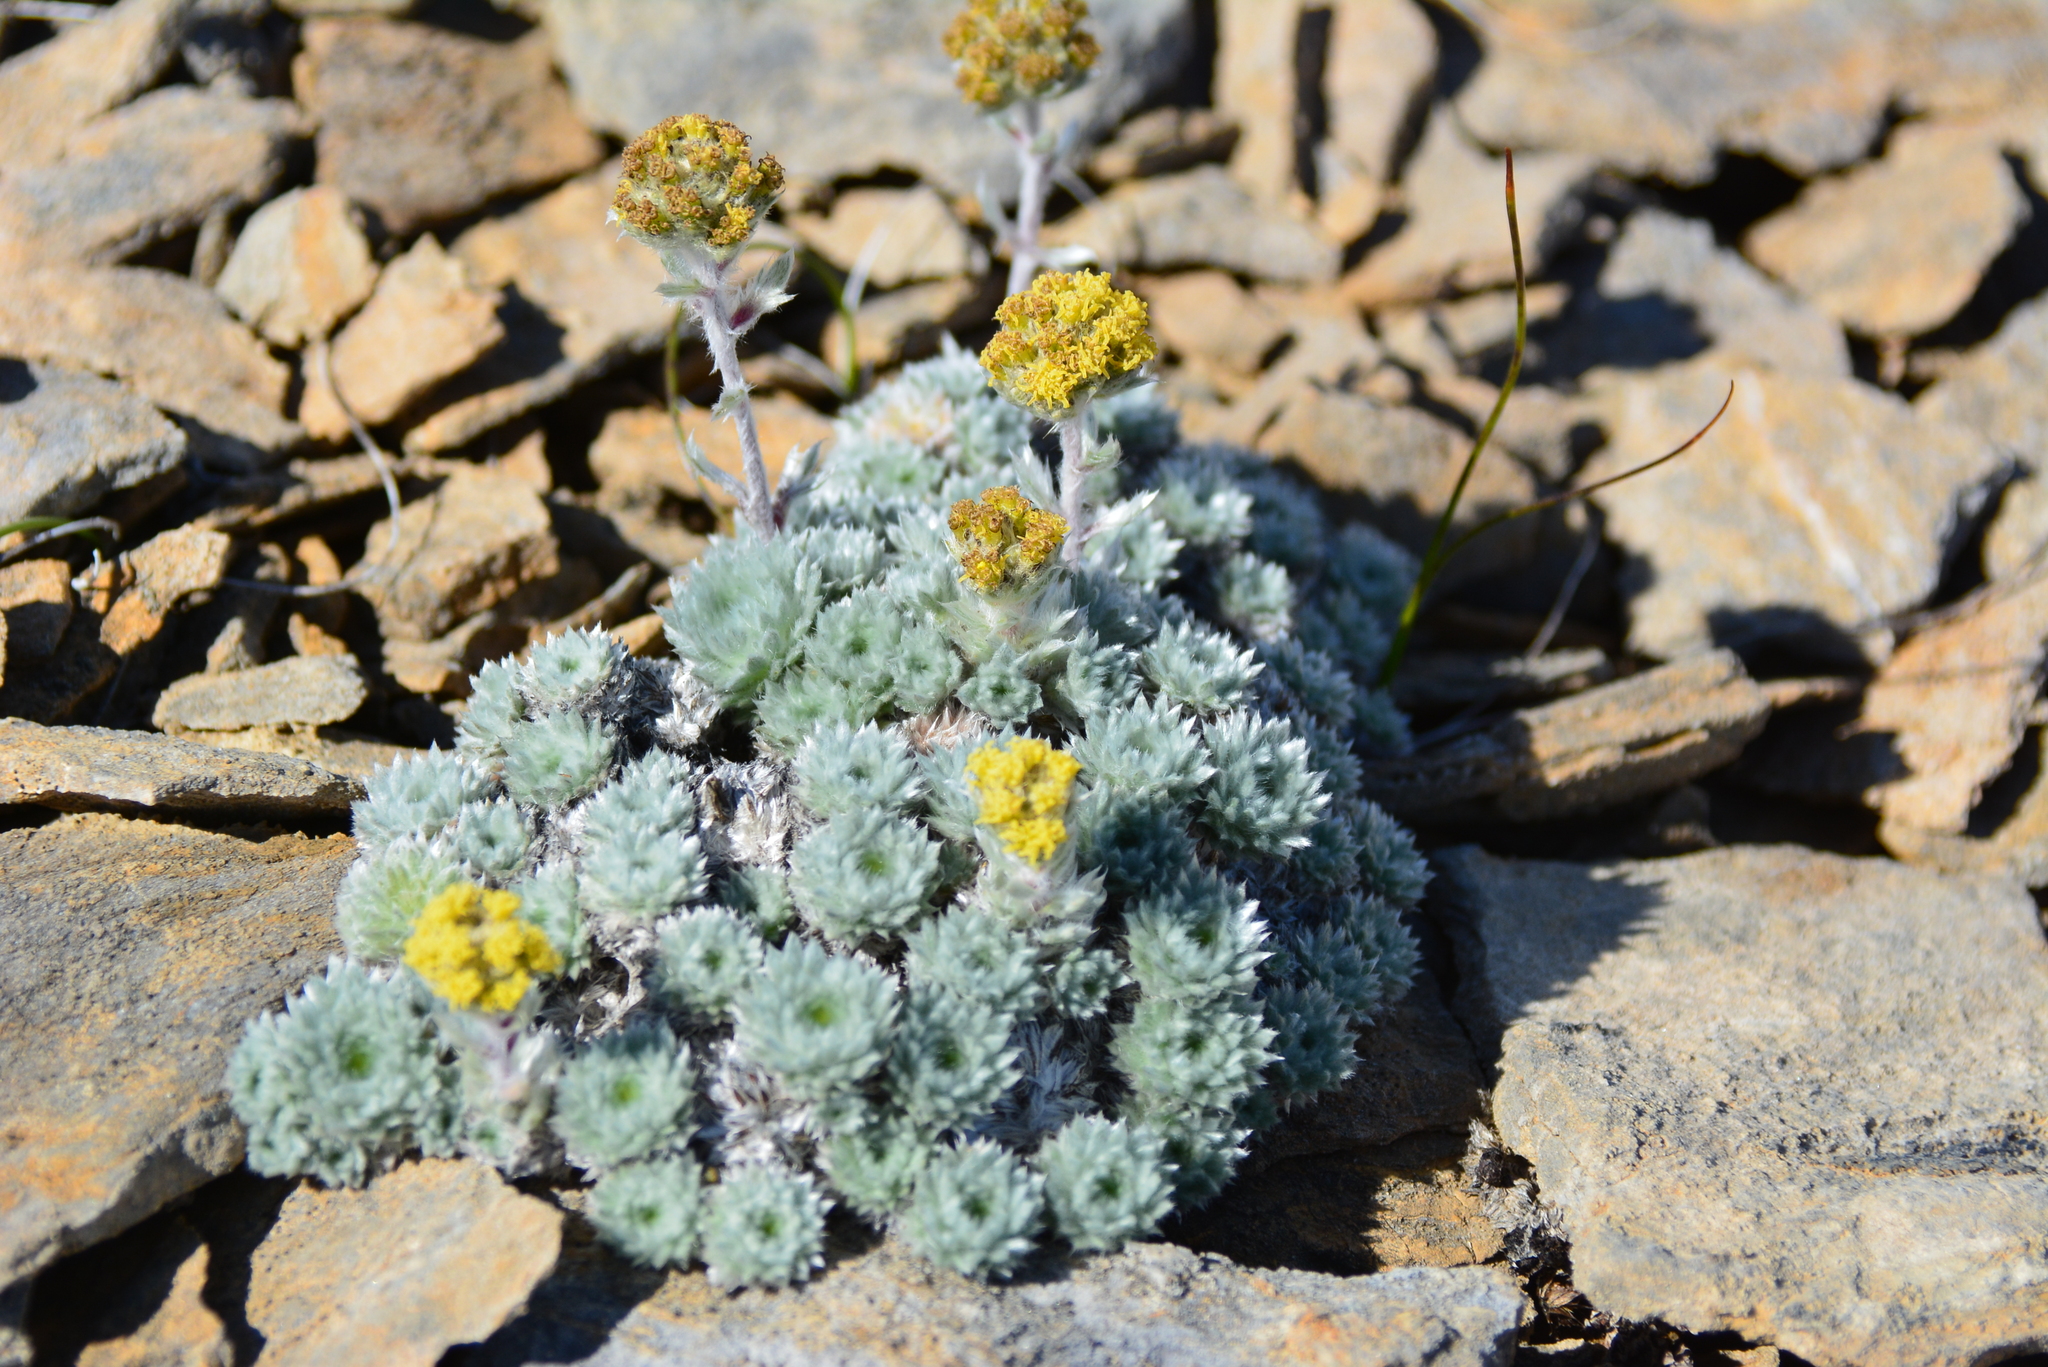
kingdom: Plantae
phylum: Tracheophyta
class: Magnoliopsida
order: Asterales
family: Asteraceae
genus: Artemisia
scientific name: Artemisia senjavinensis
